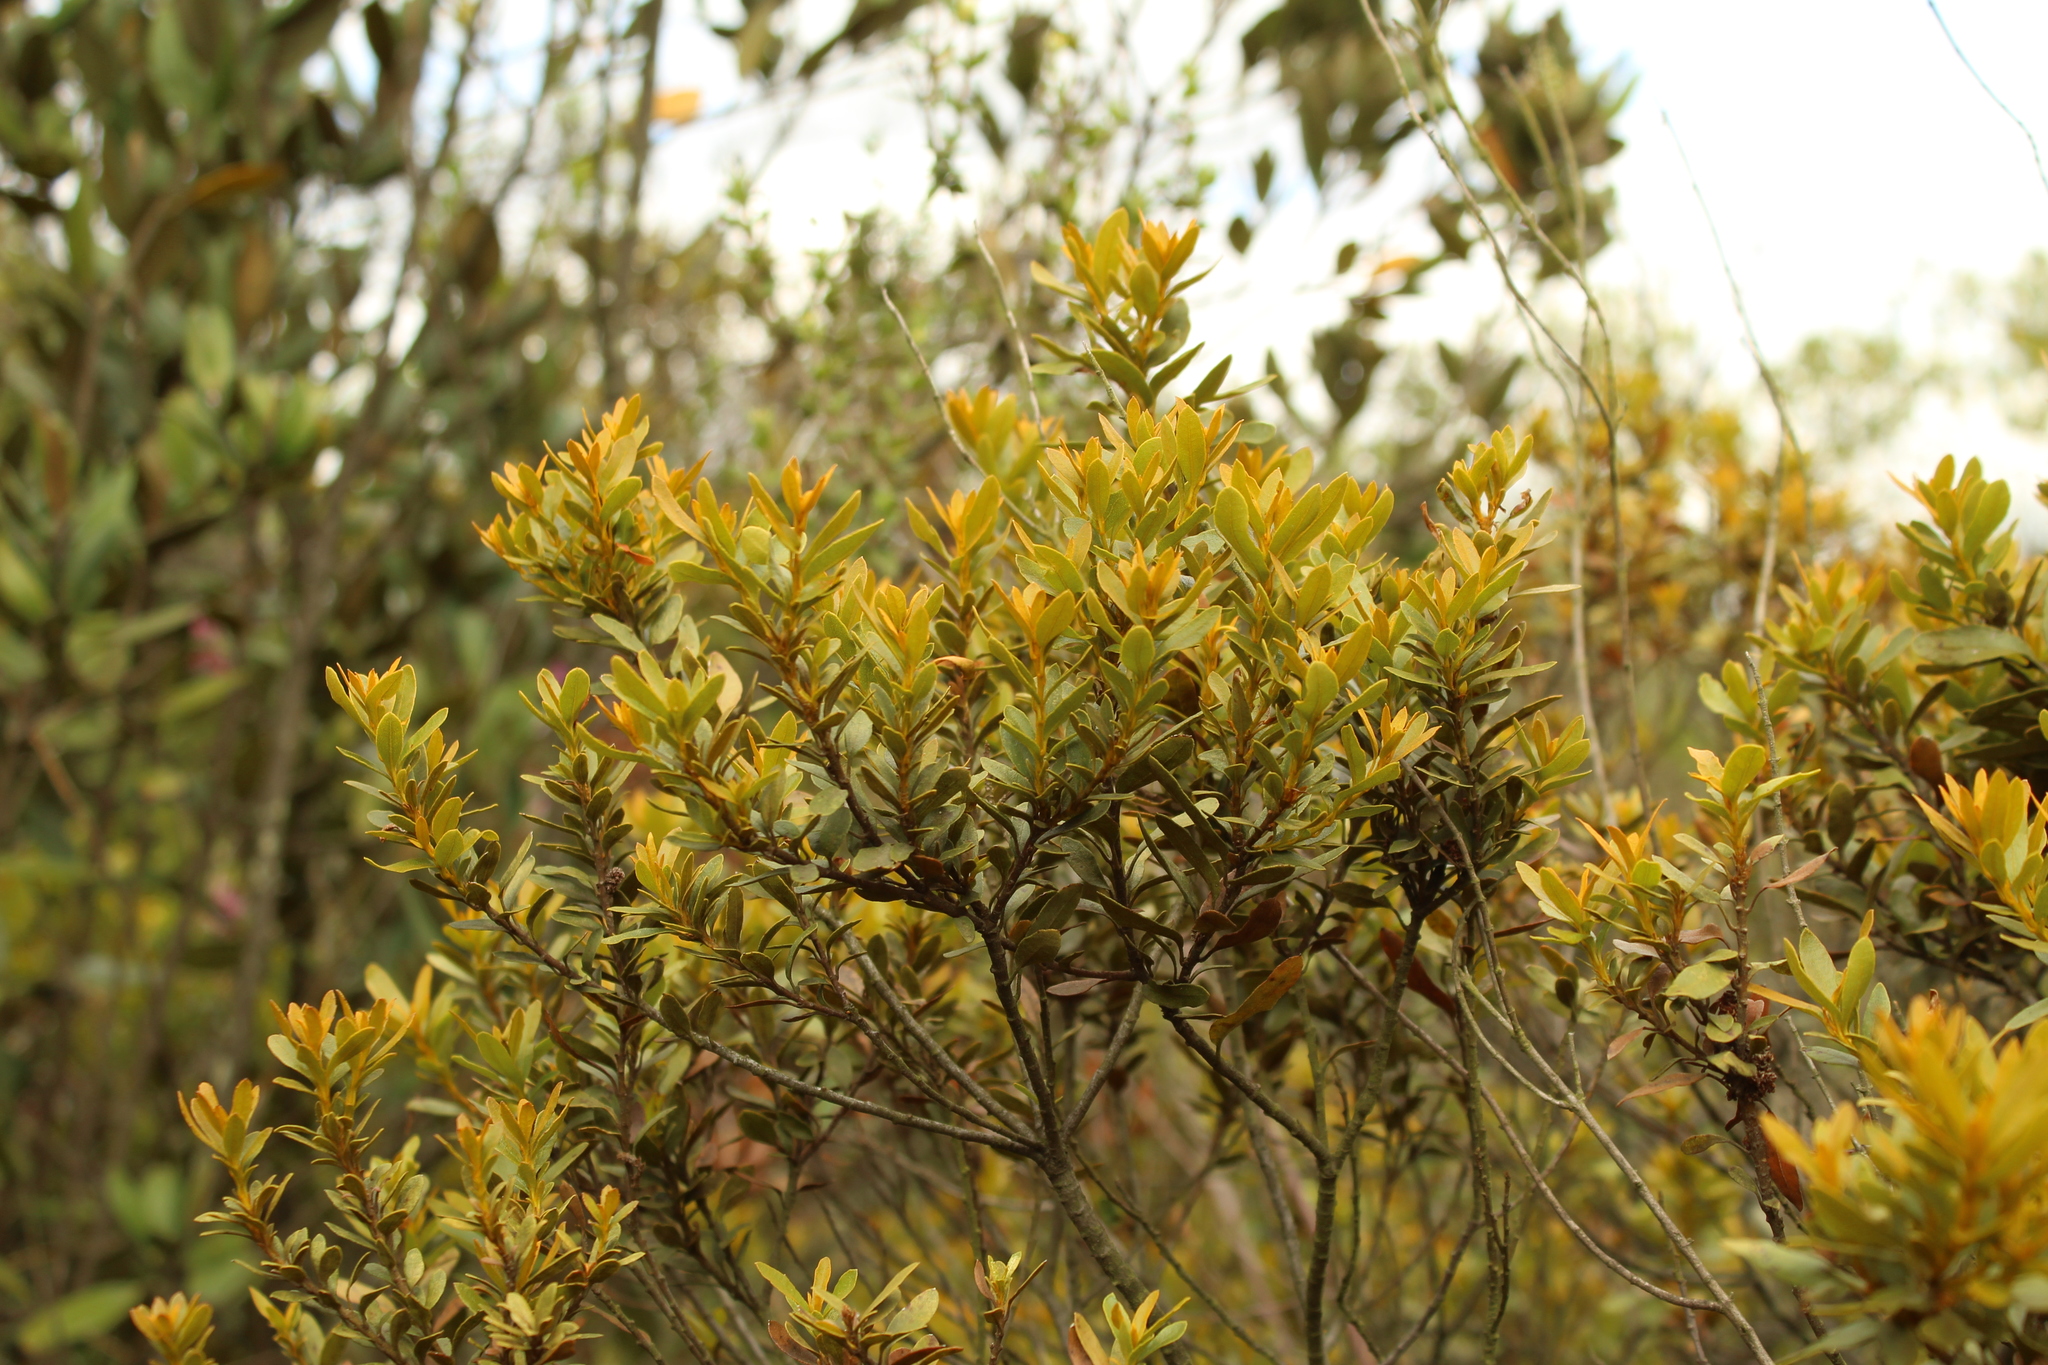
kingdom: Plantae
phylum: Tracheophyta
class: Magnoliopsida
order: Fagales
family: Myricaceae
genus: Morella
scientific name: Morella parvifolia
